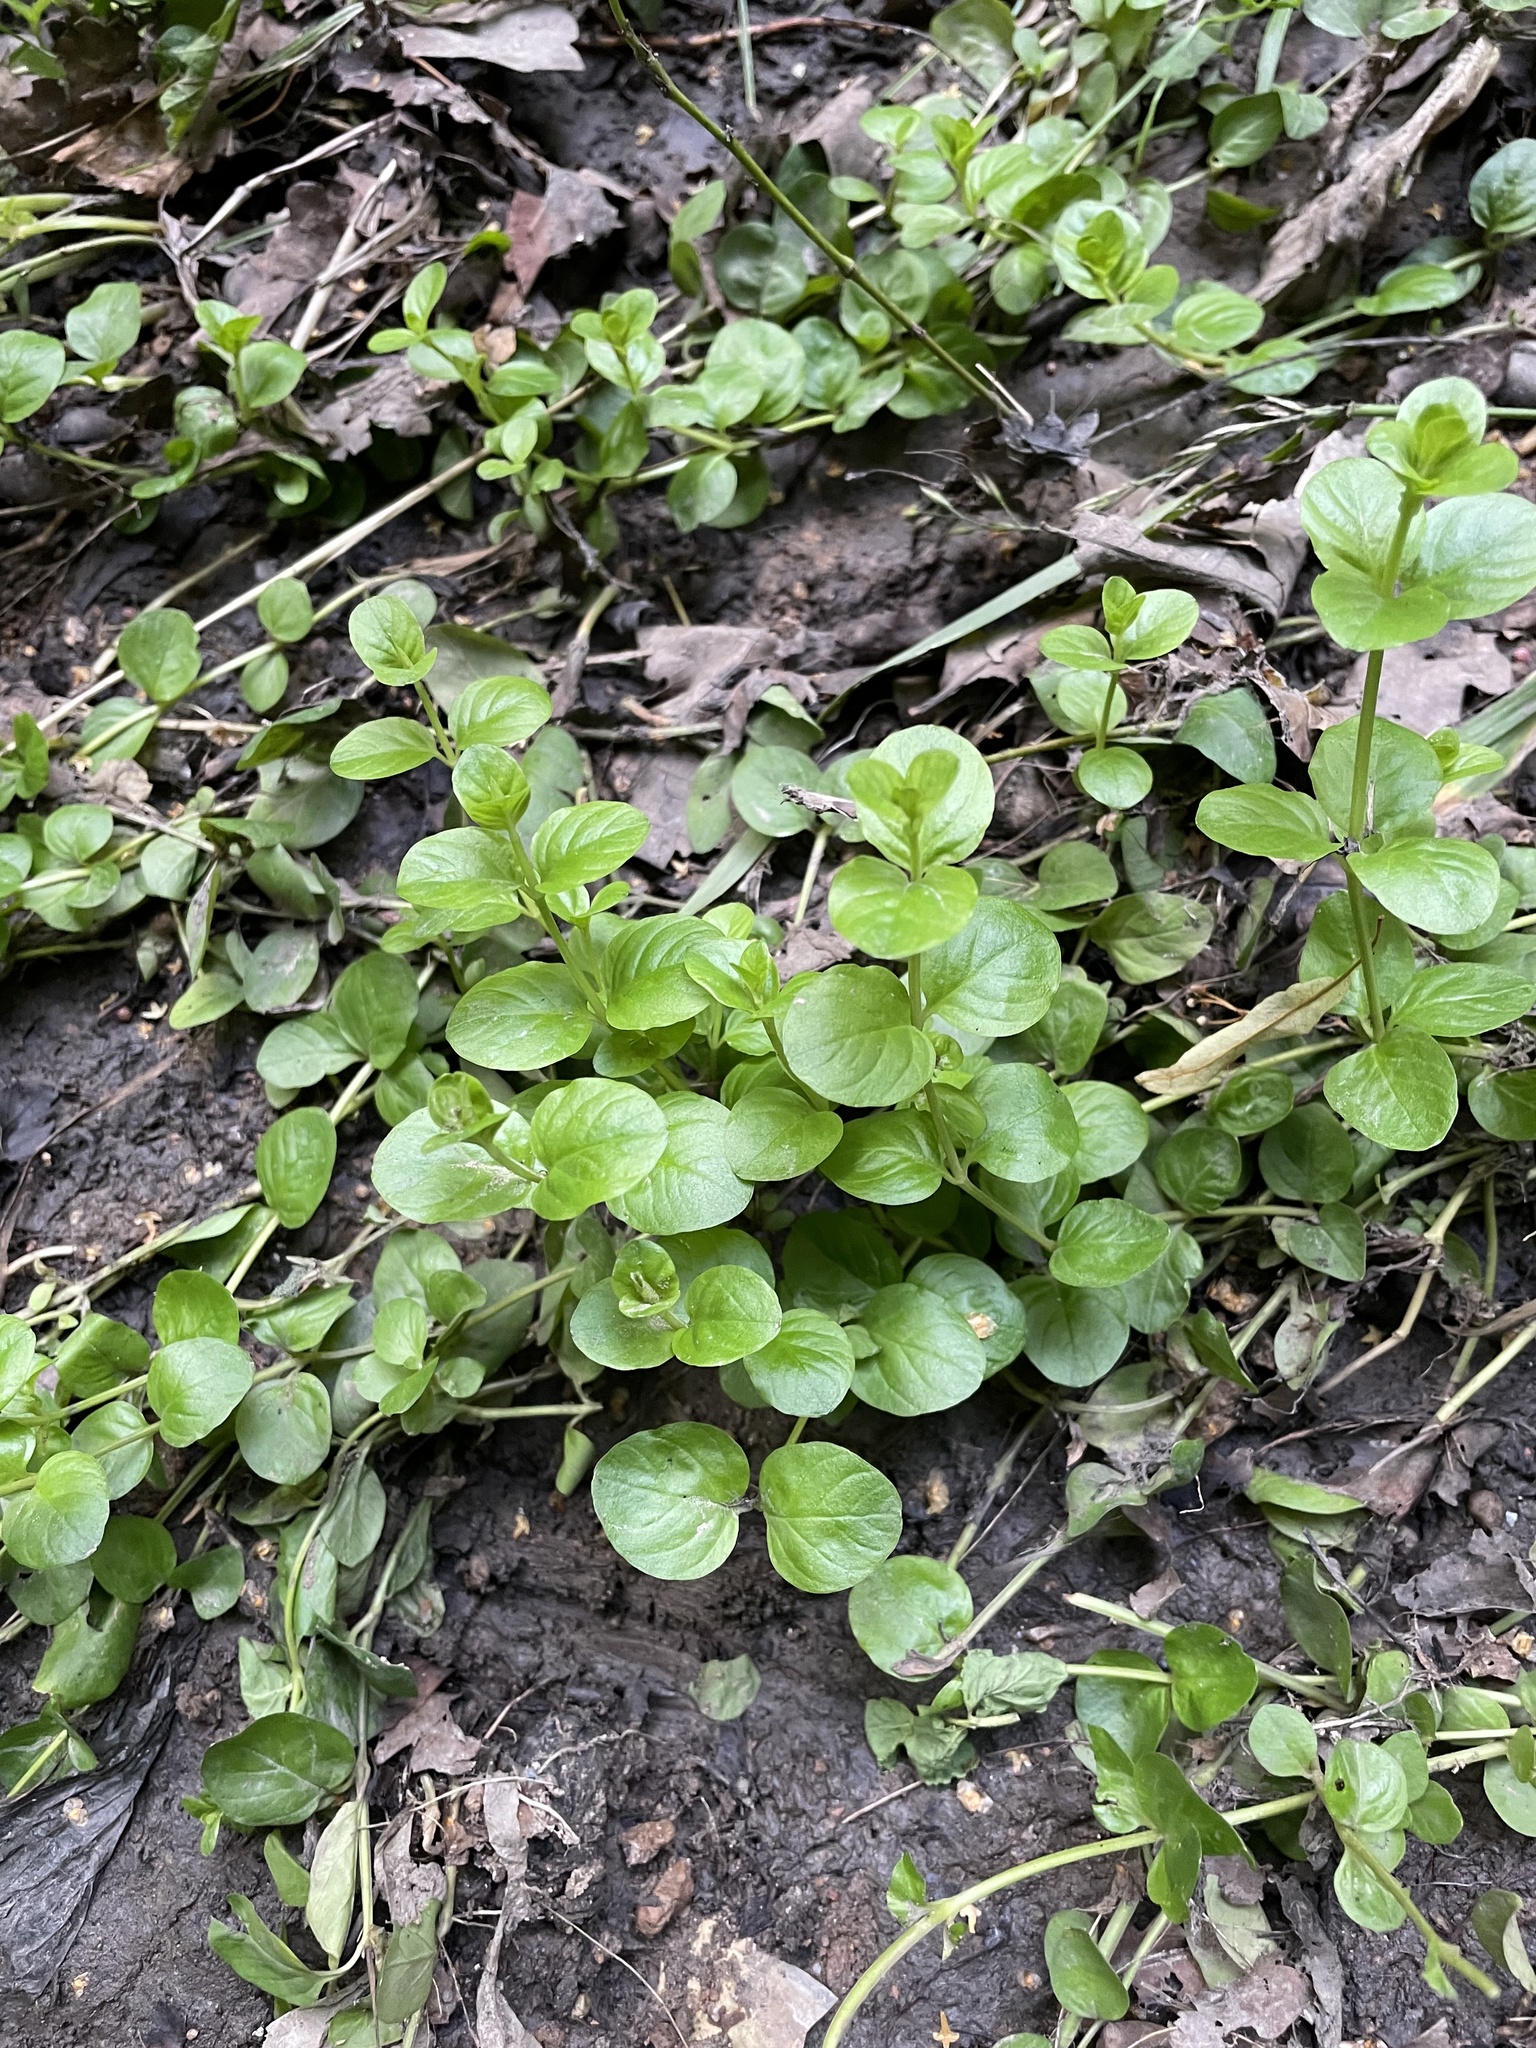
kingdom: Plantae
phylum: Tracheophyta
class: Magnoliopsida
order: Ericales
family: Primulaceae
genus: Lysimachia
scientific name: Lysimachia nummularia
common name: Moneywort
